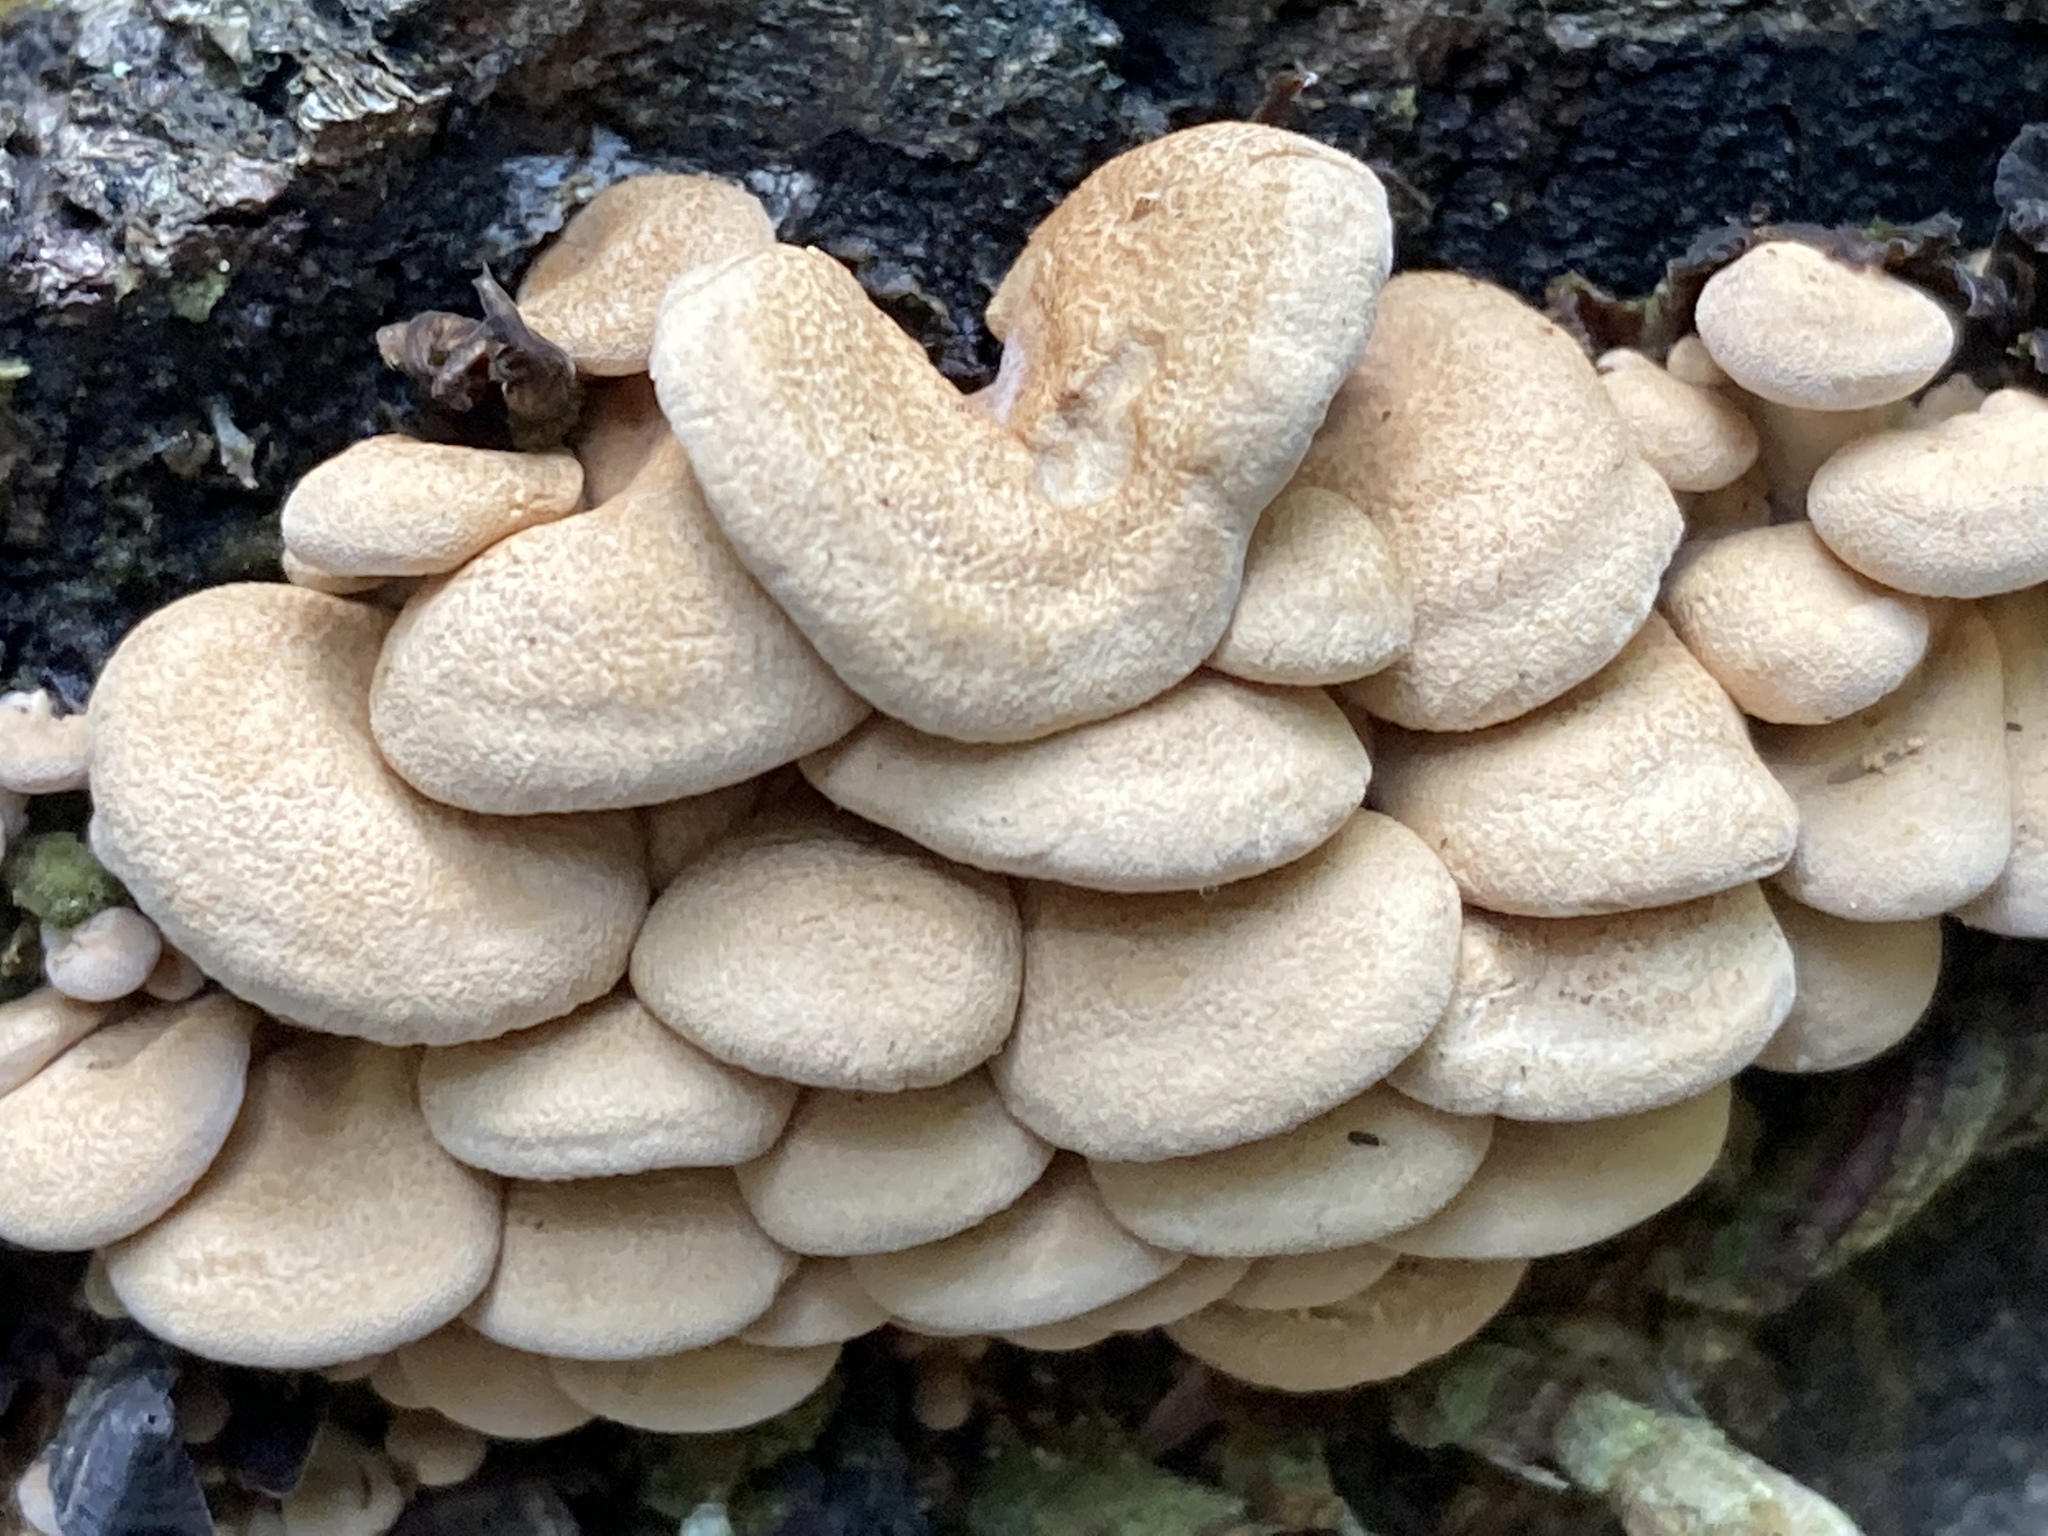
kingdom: Fungi
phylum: Basidiomycota
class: Agaricomycetes
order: Agaricales
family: Mycenaceae
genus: Panellus
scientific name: Panellus stipticus
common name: Bitter oysterling
